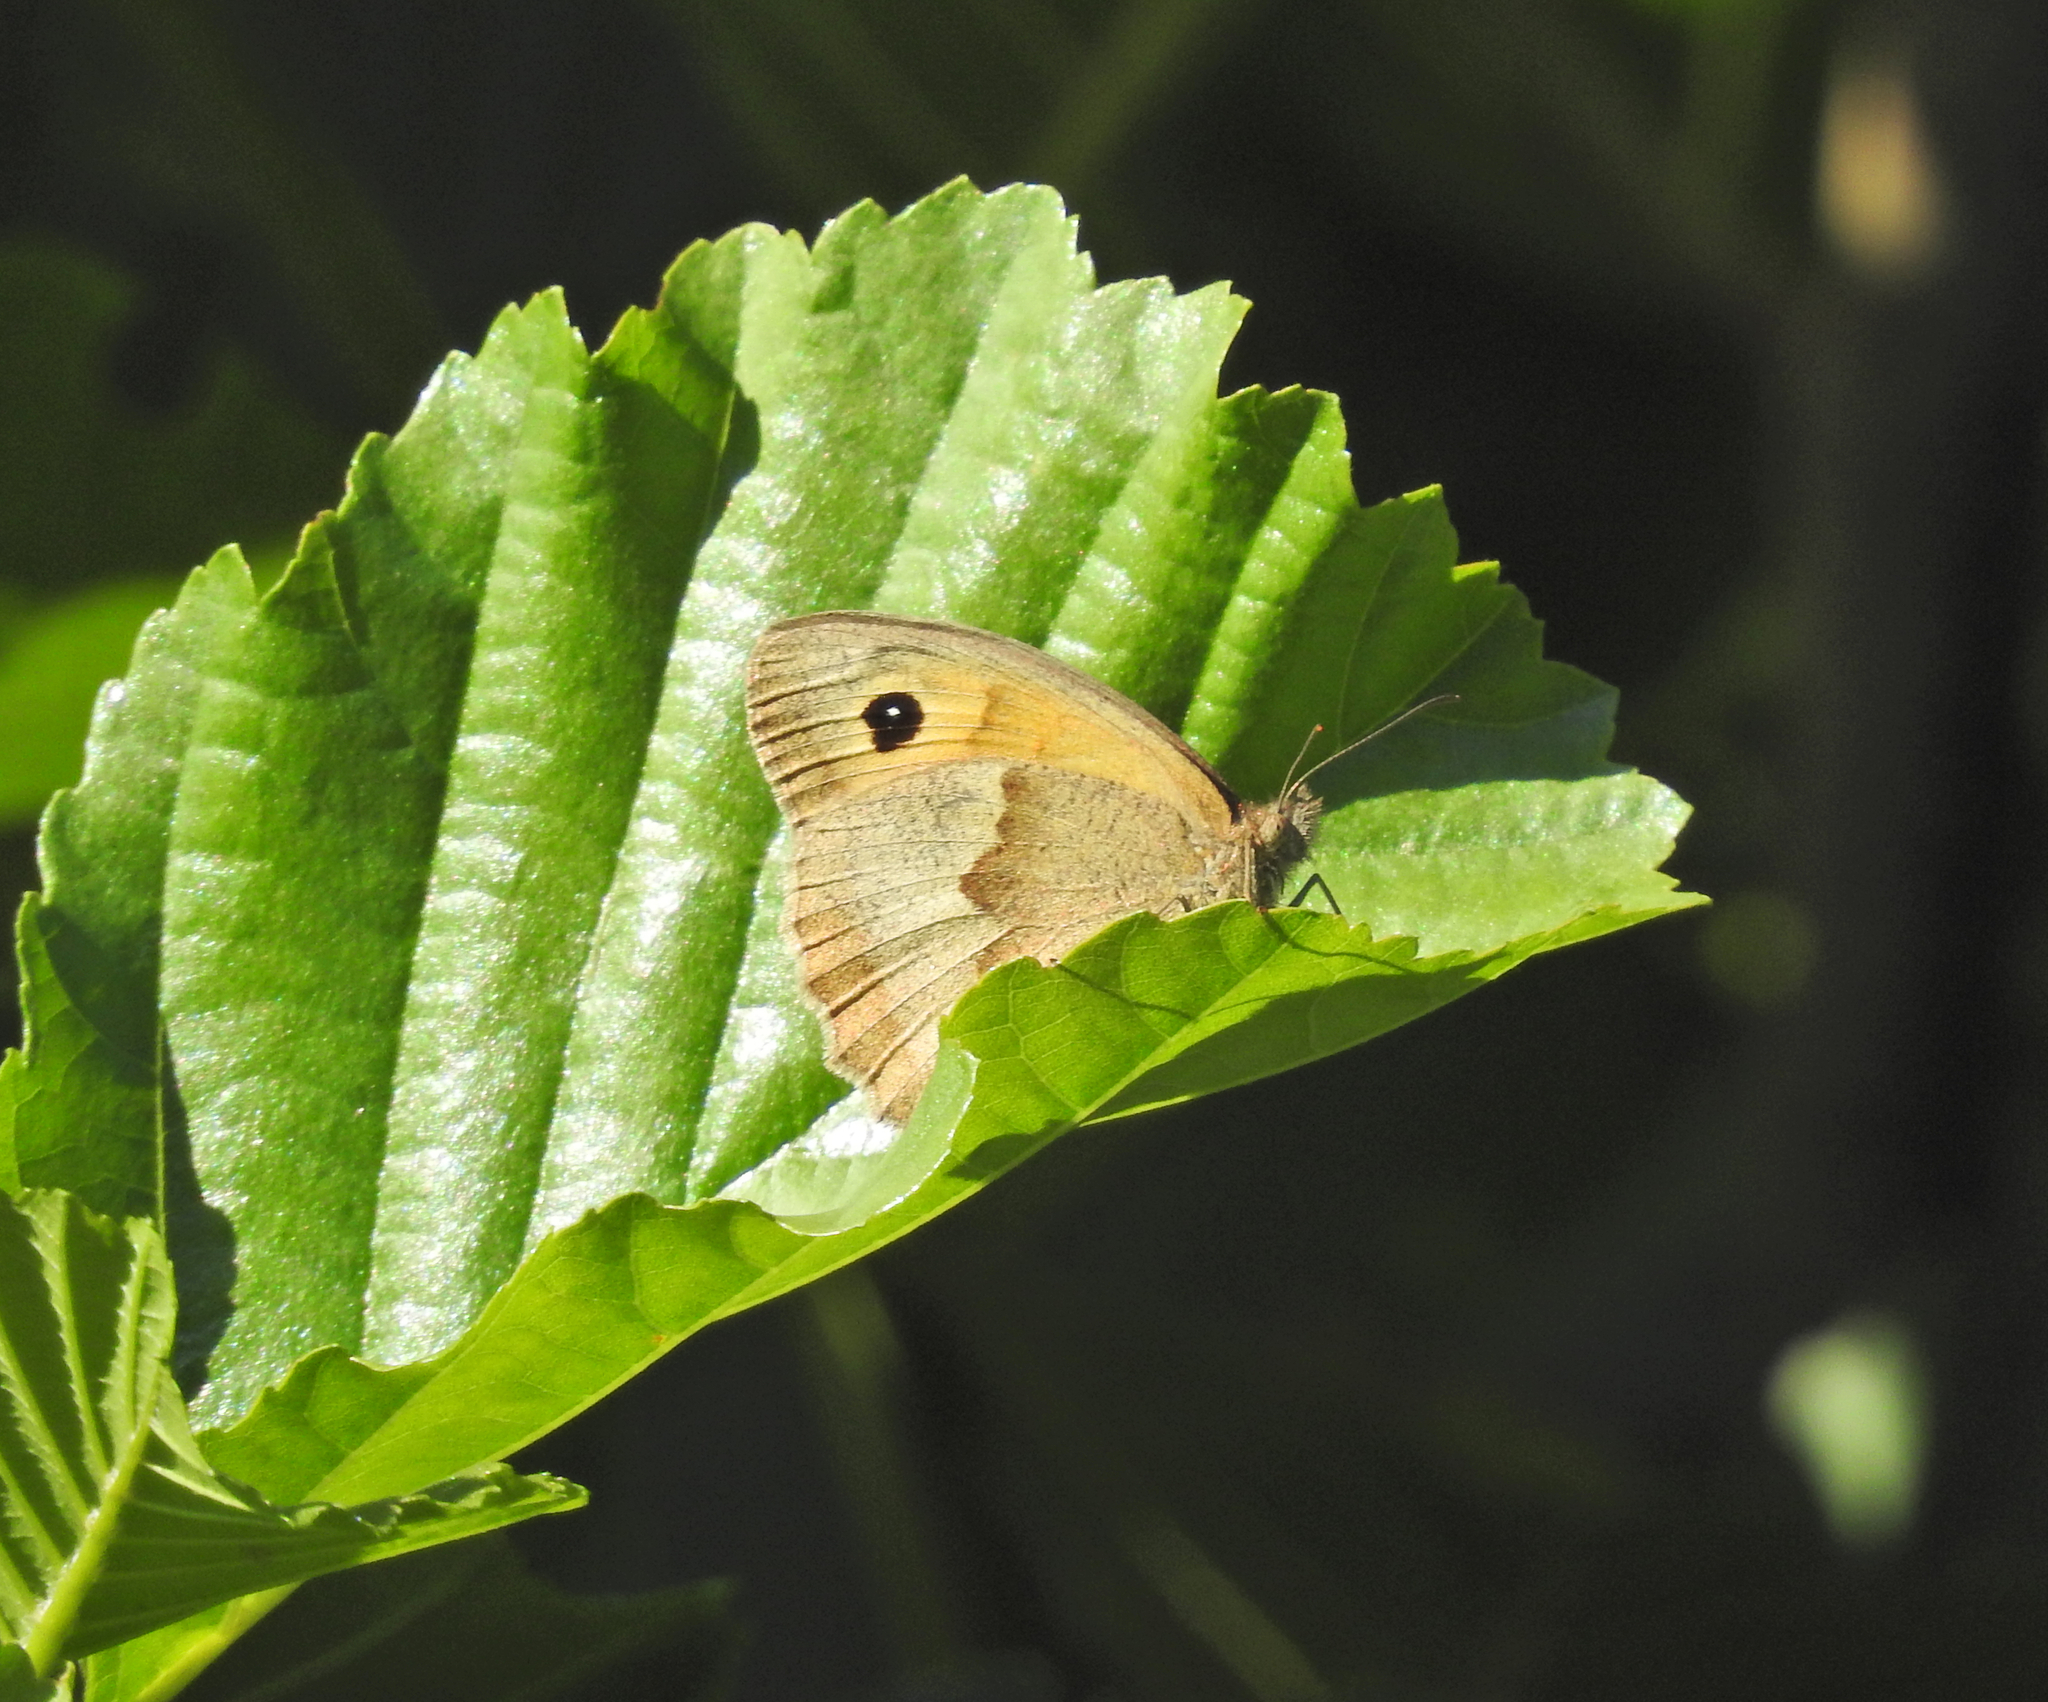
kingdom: Animalia
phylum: Arthropoda
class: Insecta
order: Lepidoptera
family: Nymphalidae
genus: Maniola
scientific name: Maniola jurtina
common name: Meadow brown
